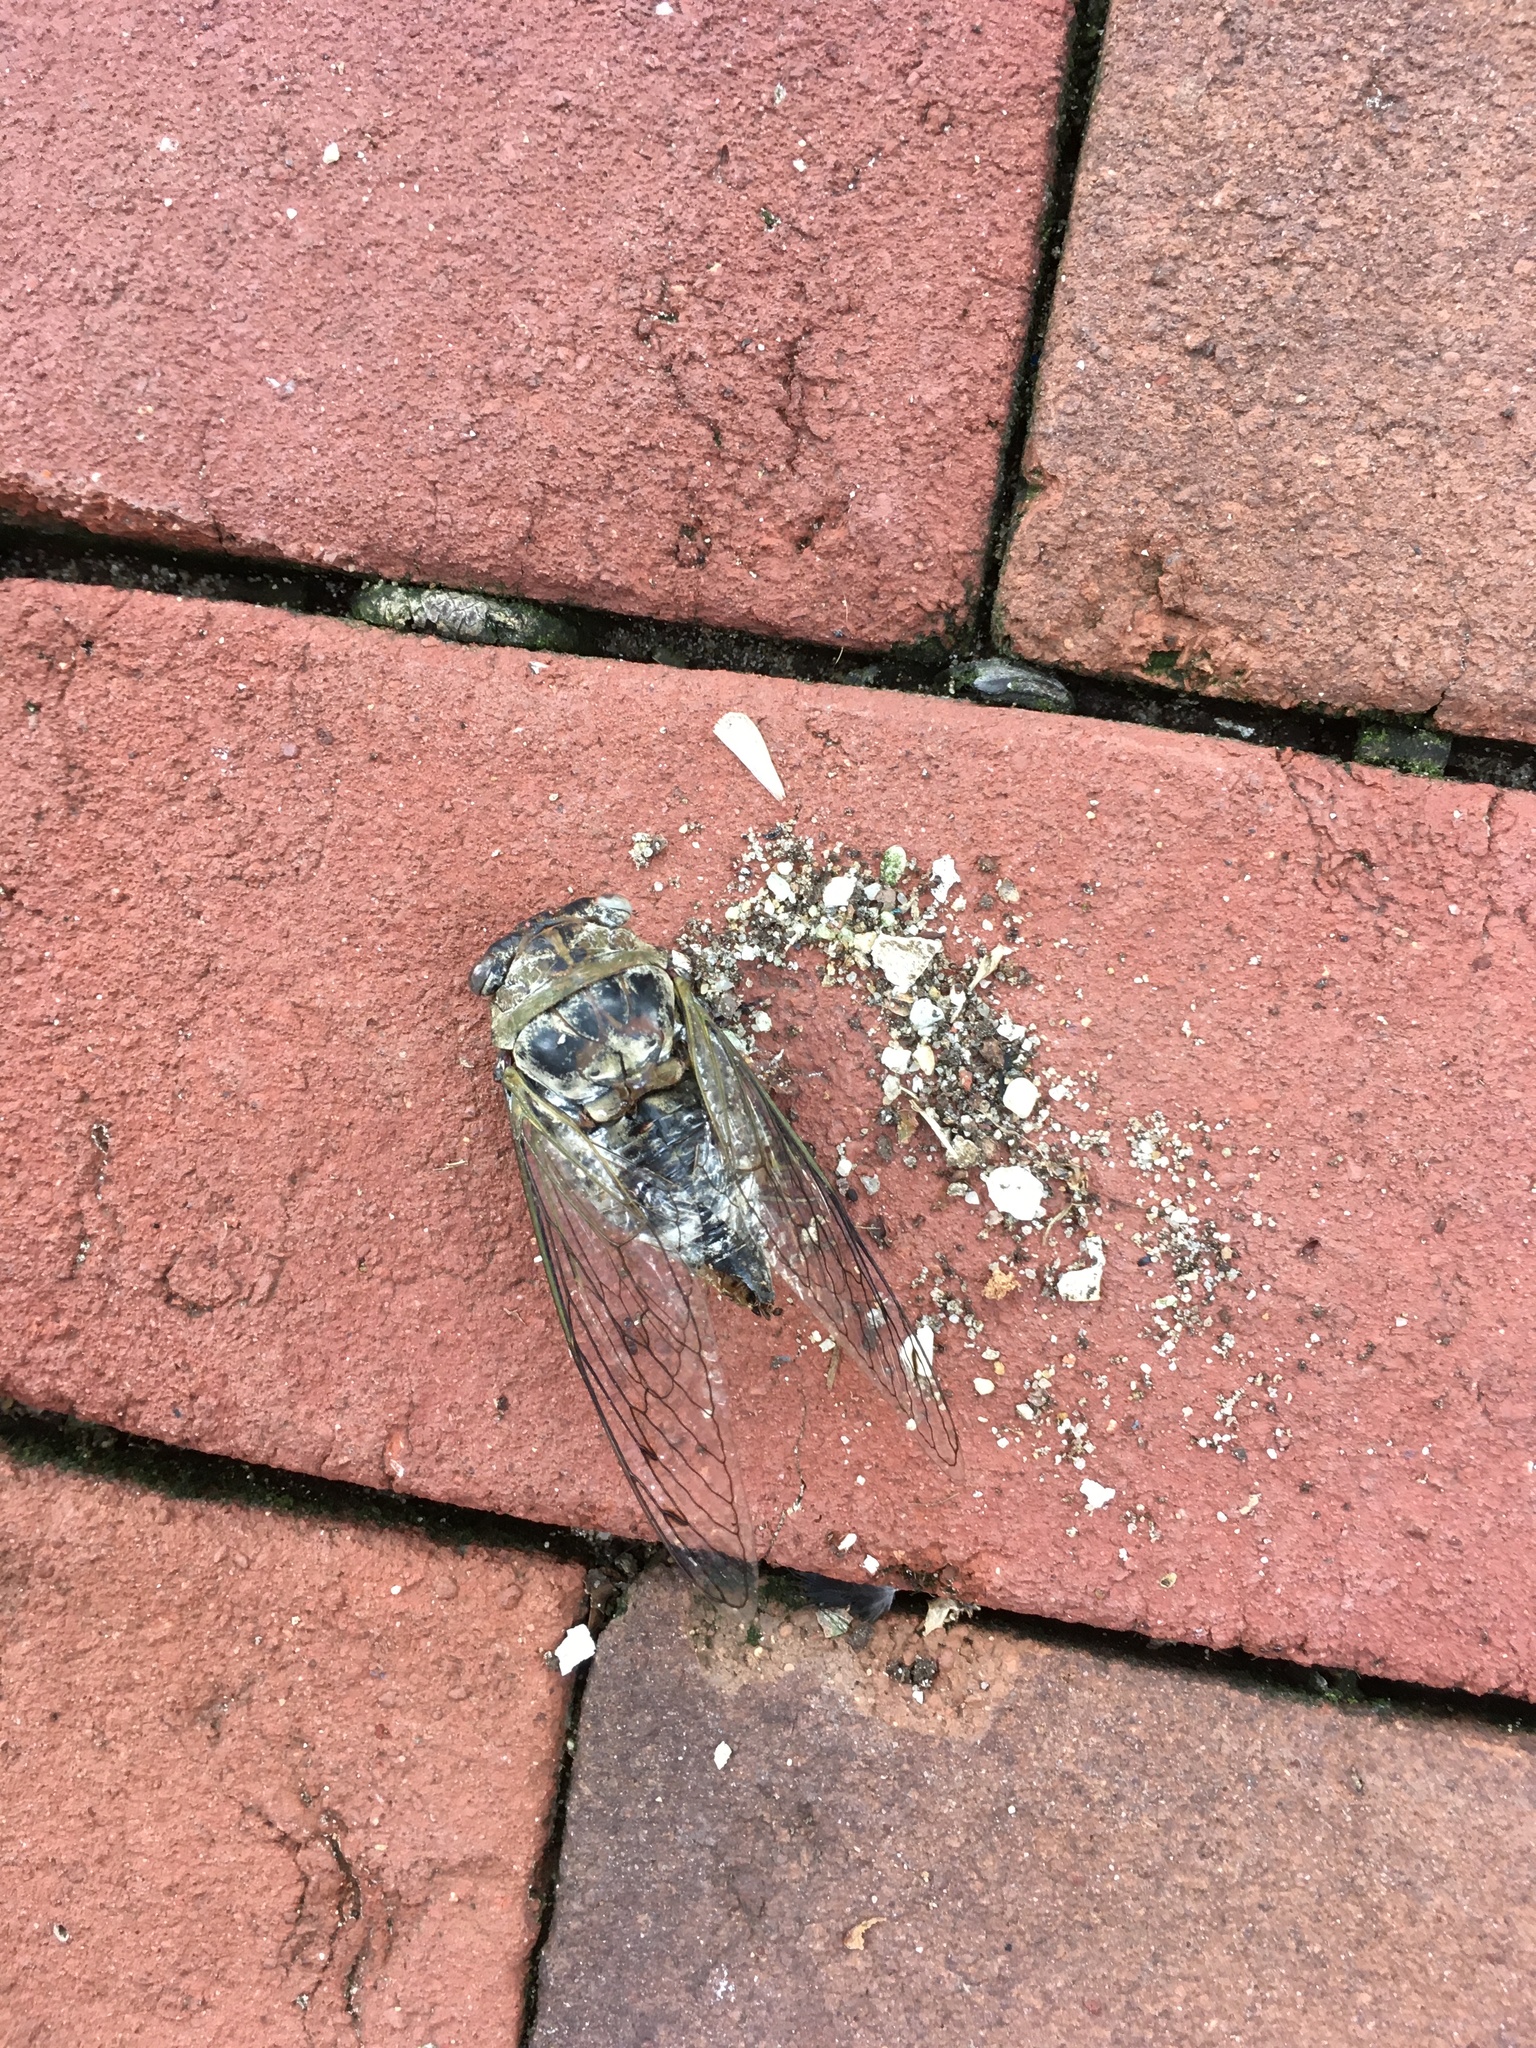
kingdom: Animalia
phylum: Arthropoda
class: Insecta
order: Hemiptera
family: Cicadidae
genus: Diceroprocta
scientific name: Diceroprocta grossa
